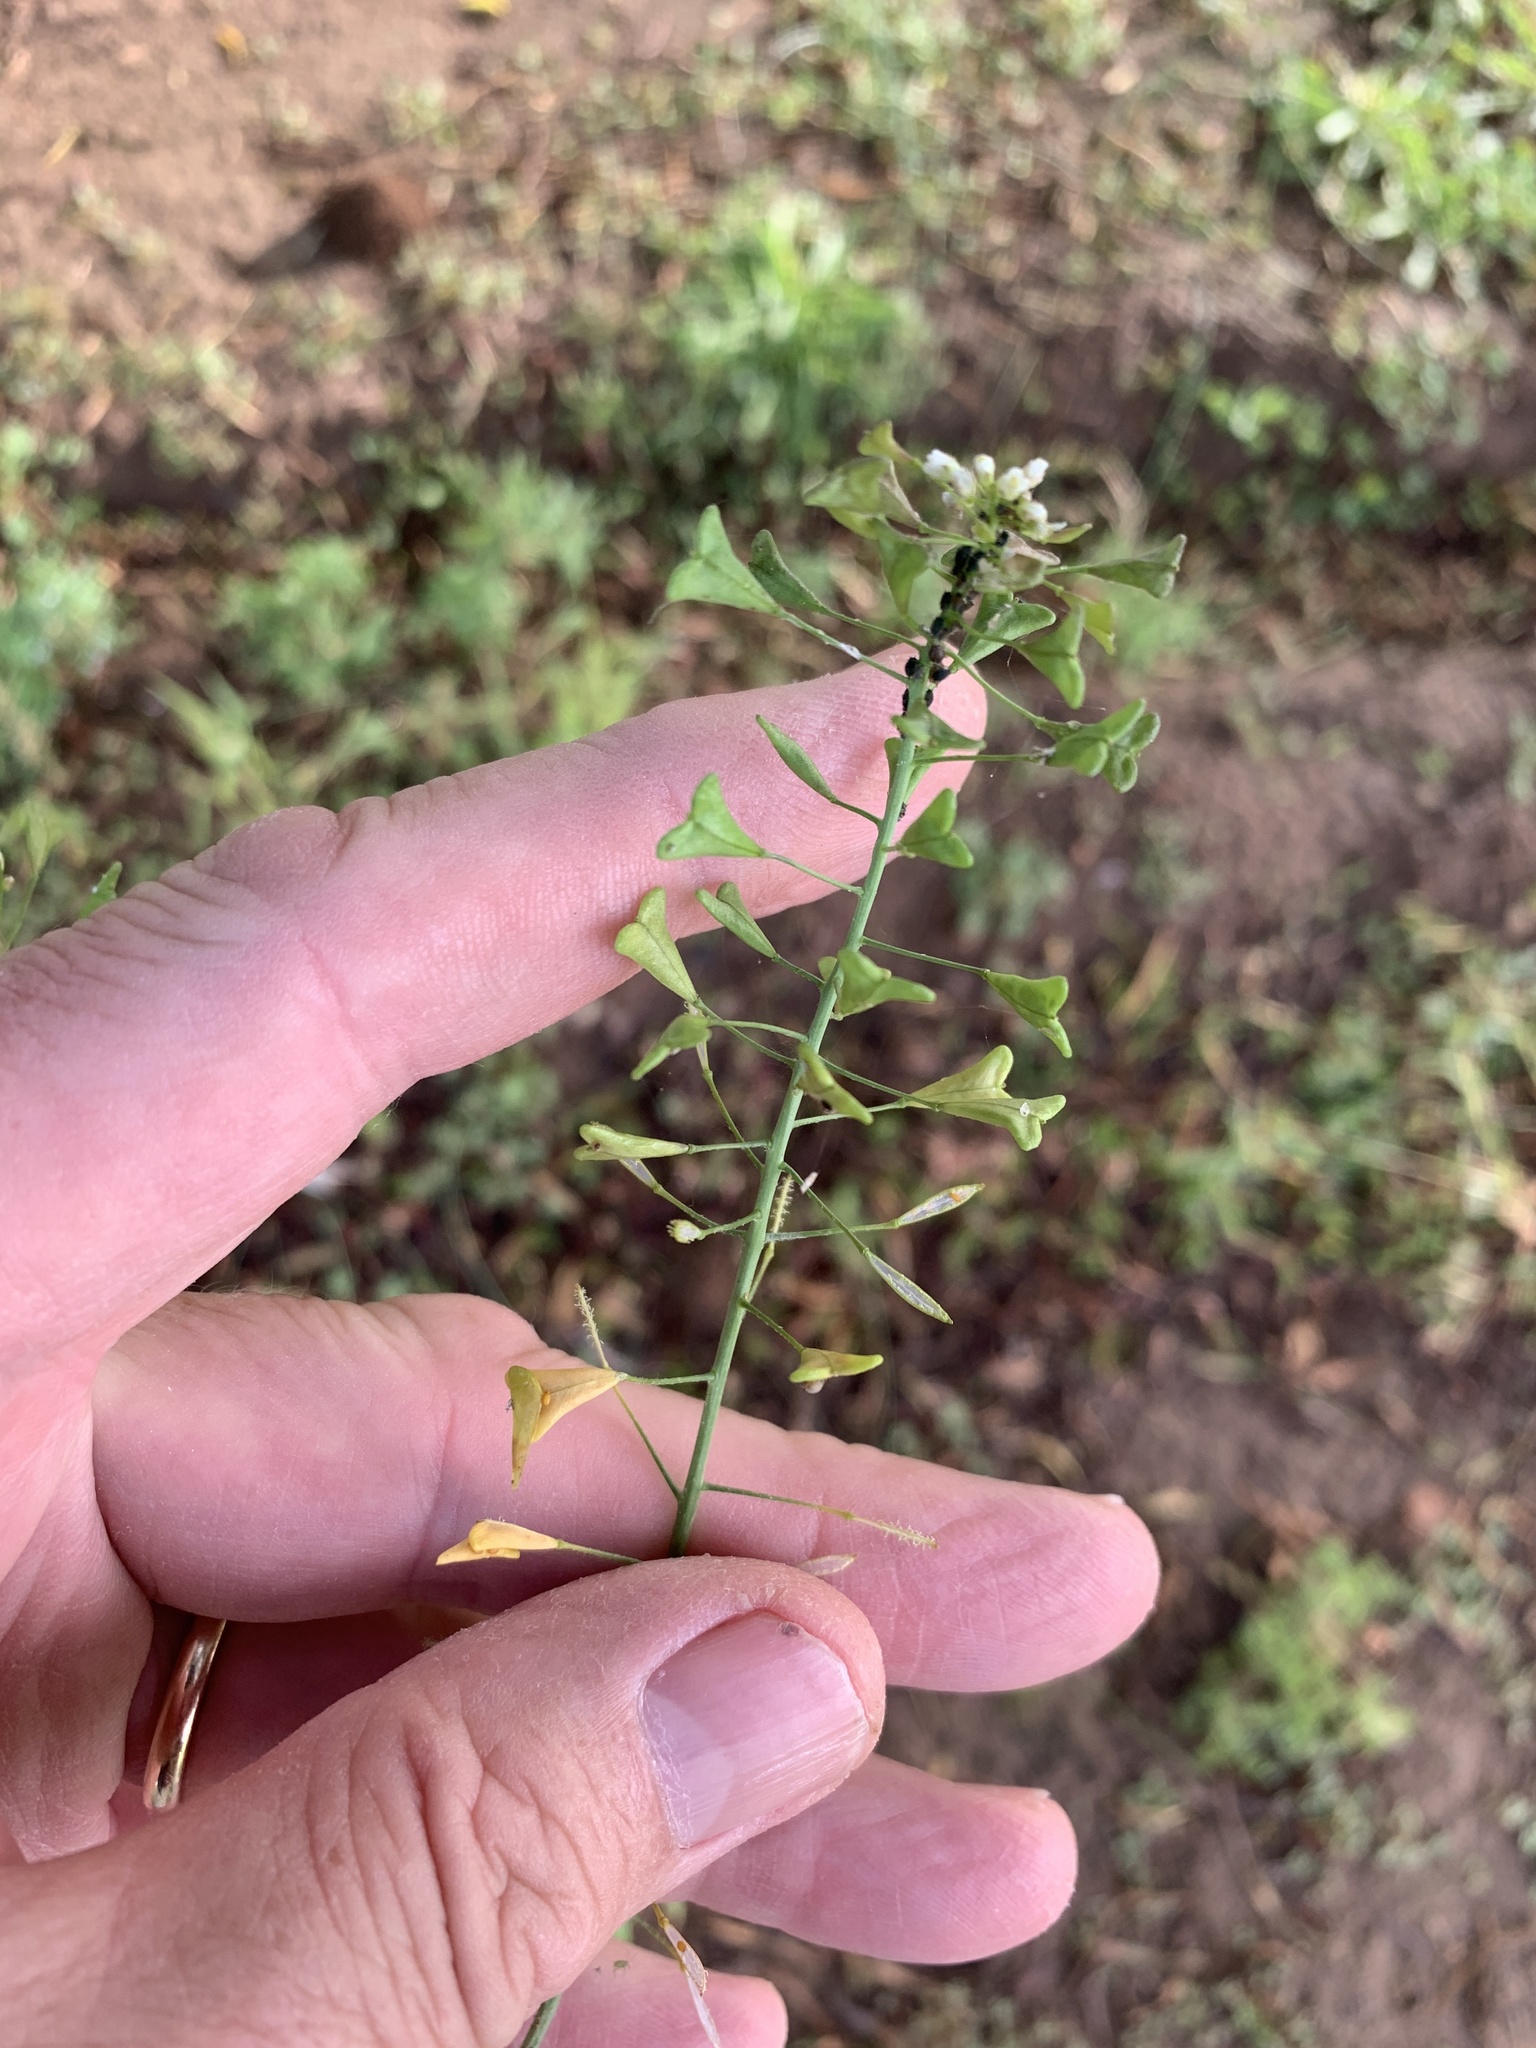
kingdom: Plantae
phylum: Tracheophyta
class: Magnoliopsida
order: Brassicales
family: Brassicaceae
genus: Capsella
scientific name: Capsella bursa-pastoris
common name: Shepherd's purse
